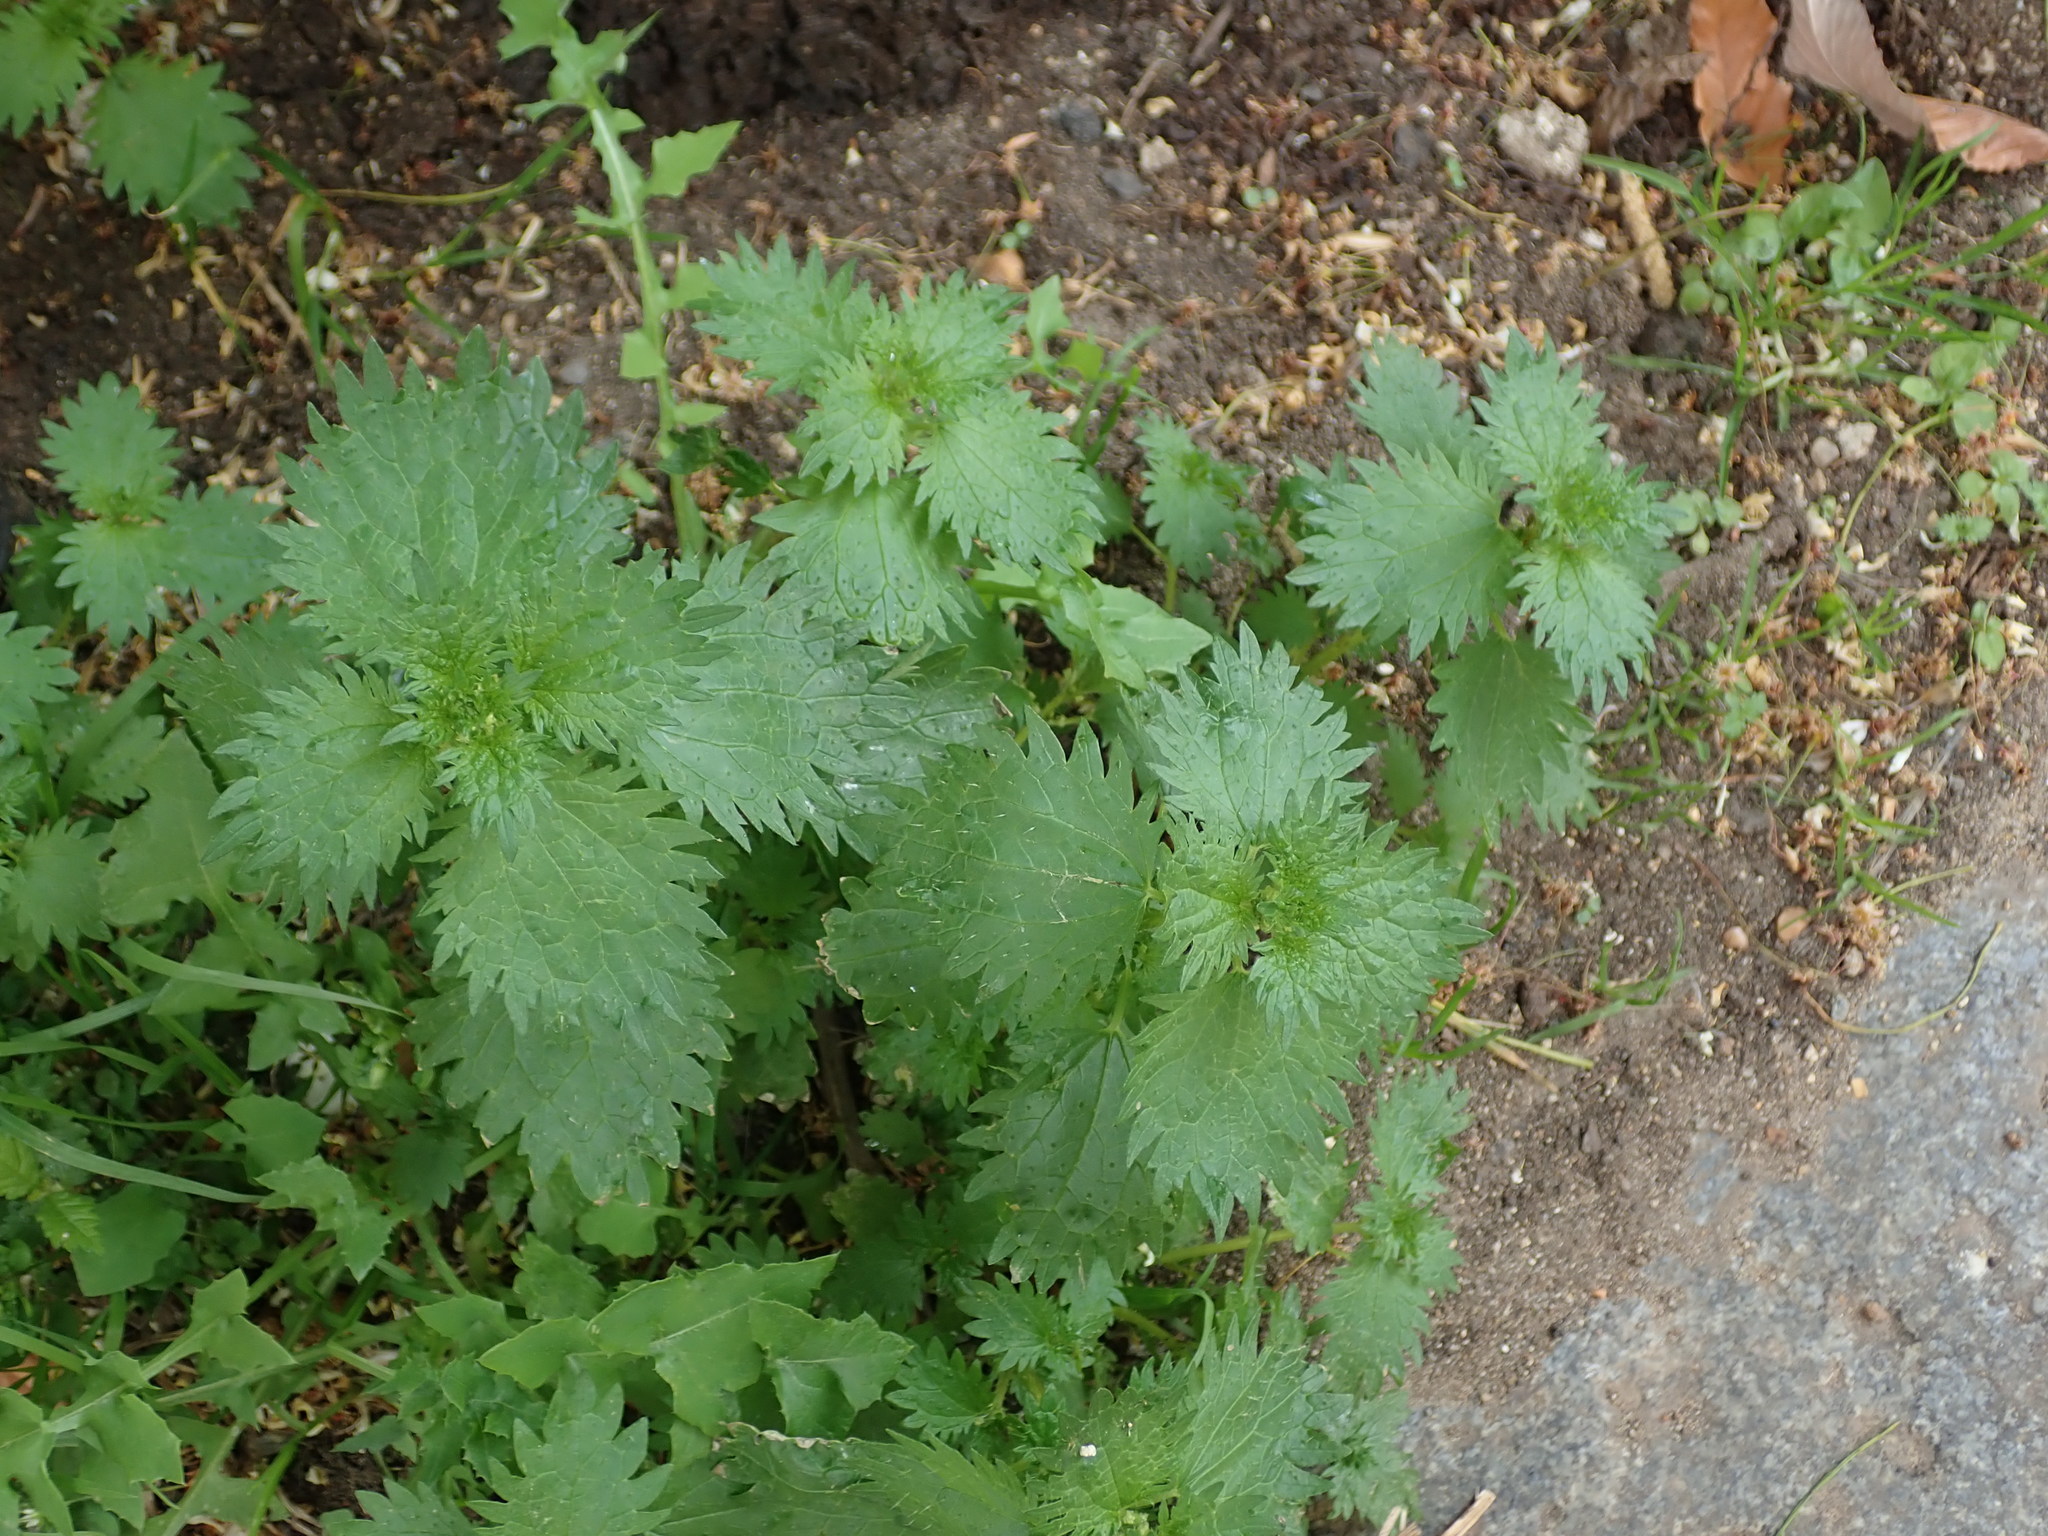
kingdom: Plantae
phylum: Tracheophyta
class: Magnoliopsida
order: Rosales
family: Urticaceae
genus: Urtica
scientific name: Urtica urens
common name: Dwarf nettle
